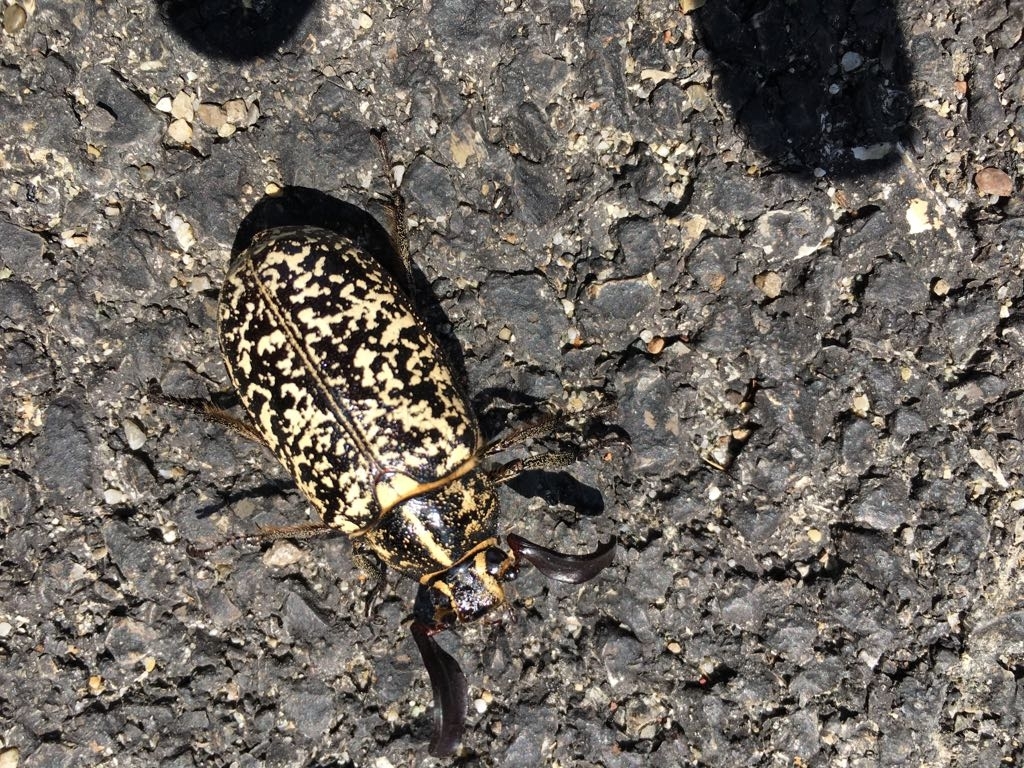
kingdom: Animalia
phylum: Arthropoda
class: Insecta
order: Coleoptera
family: Scarabaeidae
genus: Polyphylla
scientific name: Polyphylla fullo
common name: Pine chafer
